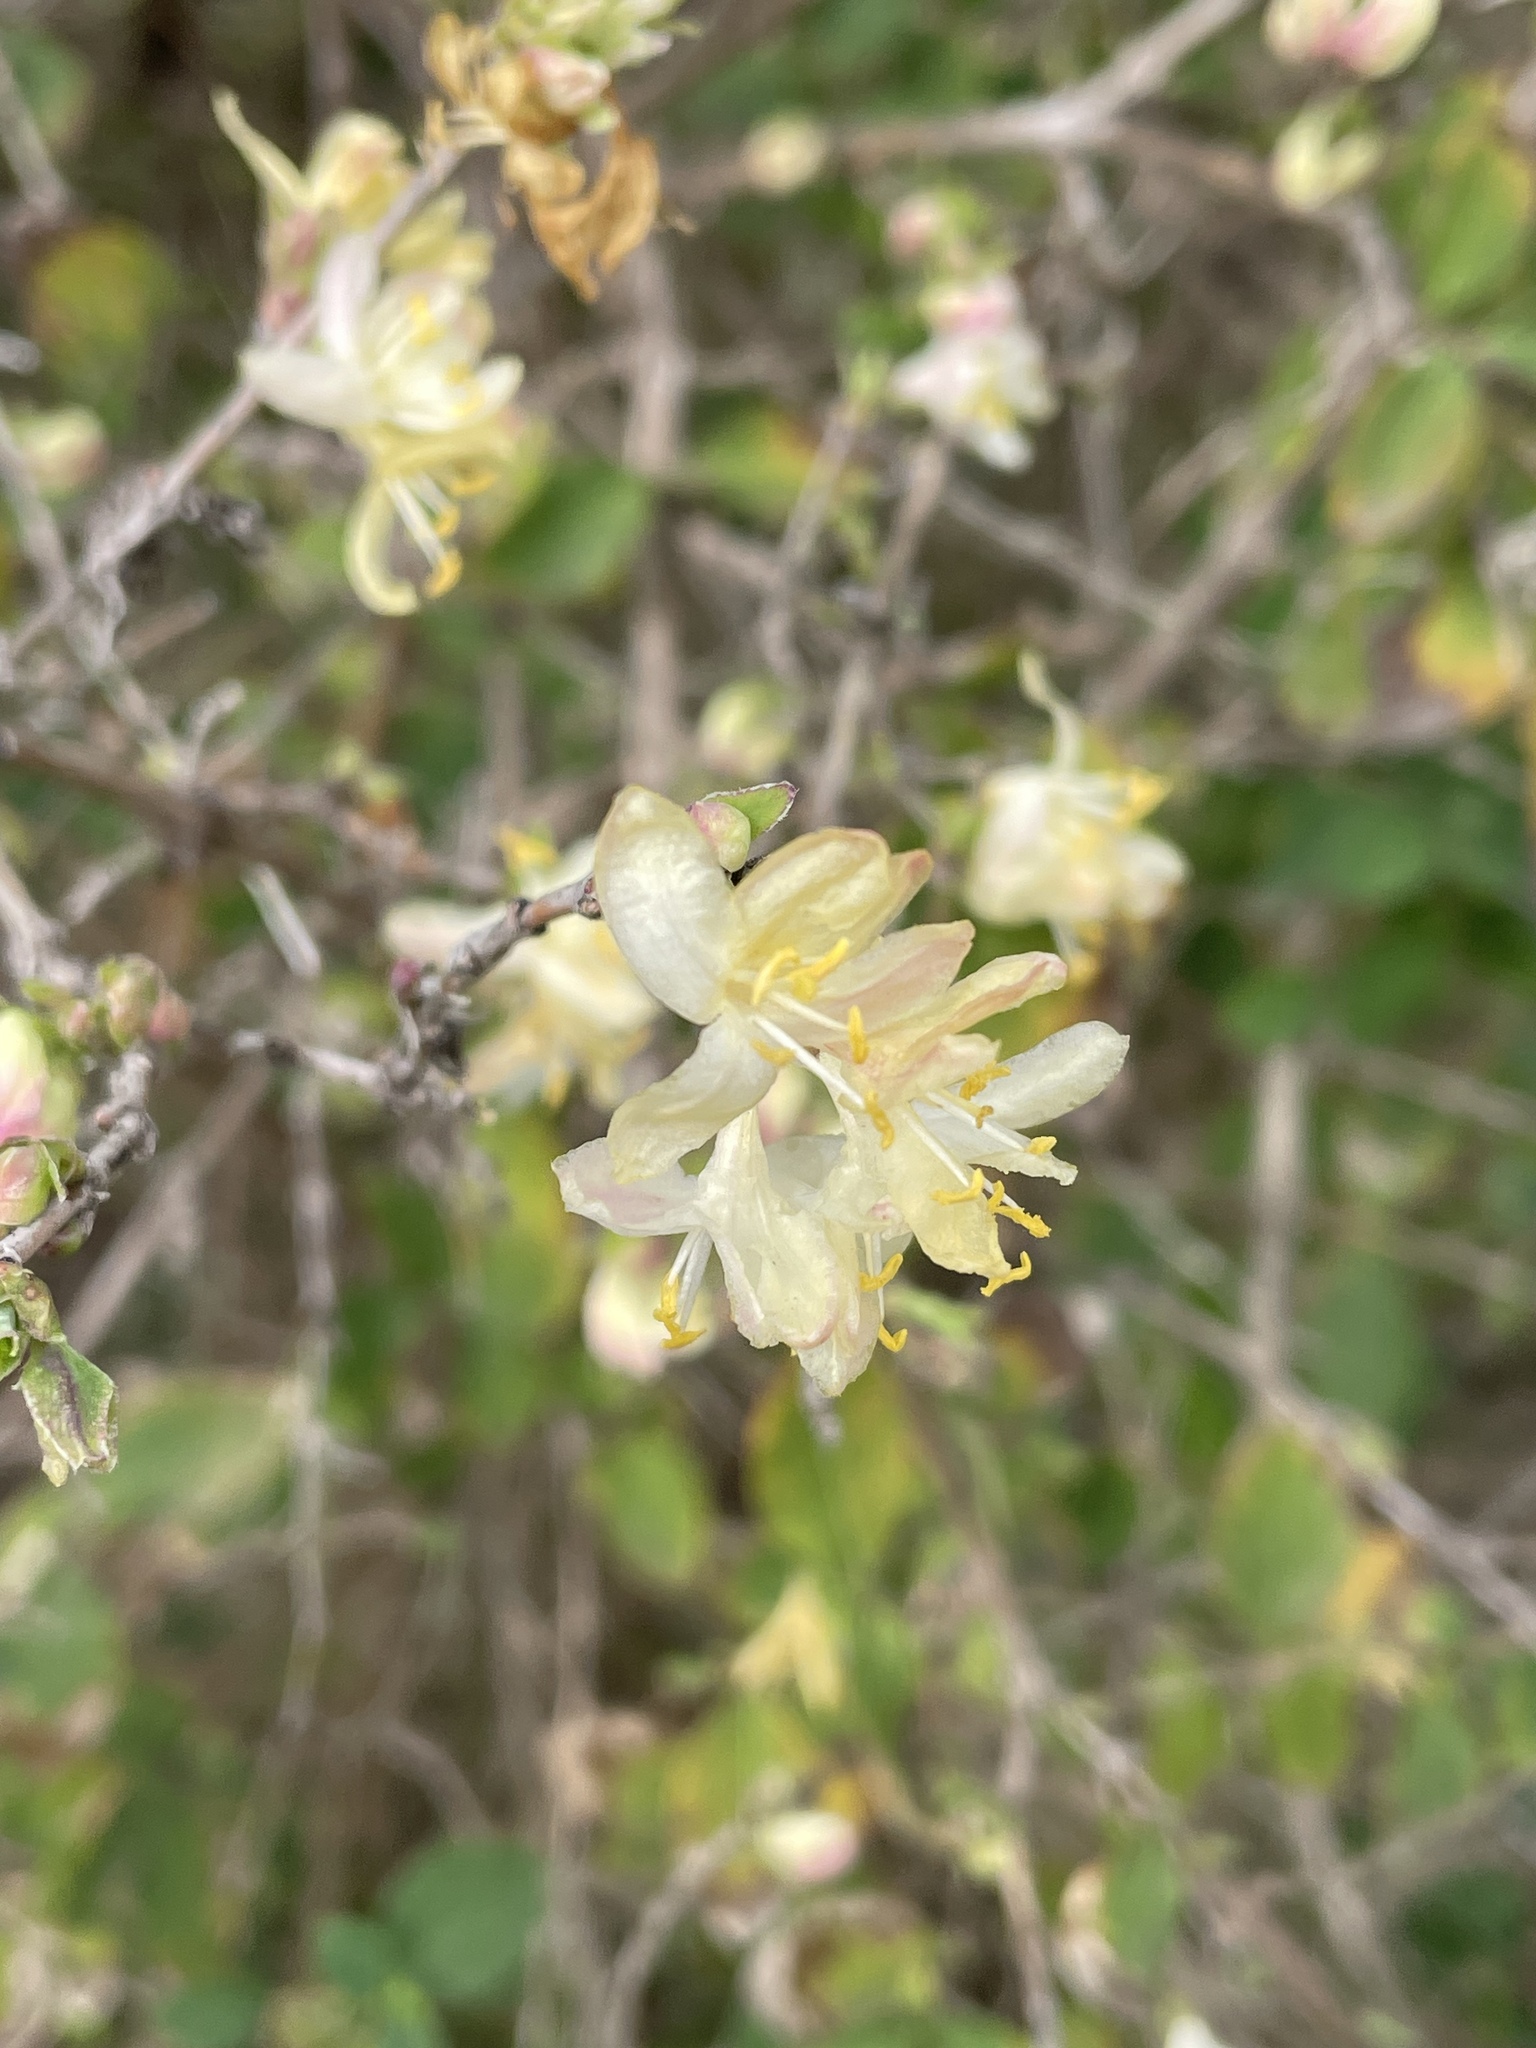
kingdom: Plantae
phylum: Tracheophyta
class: Magnoliopsida
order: Dipsacales
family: Caprifoliaceae
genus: Lonicera
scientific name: Lonicera fragrantissima
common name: Fragrant honeysuckle
